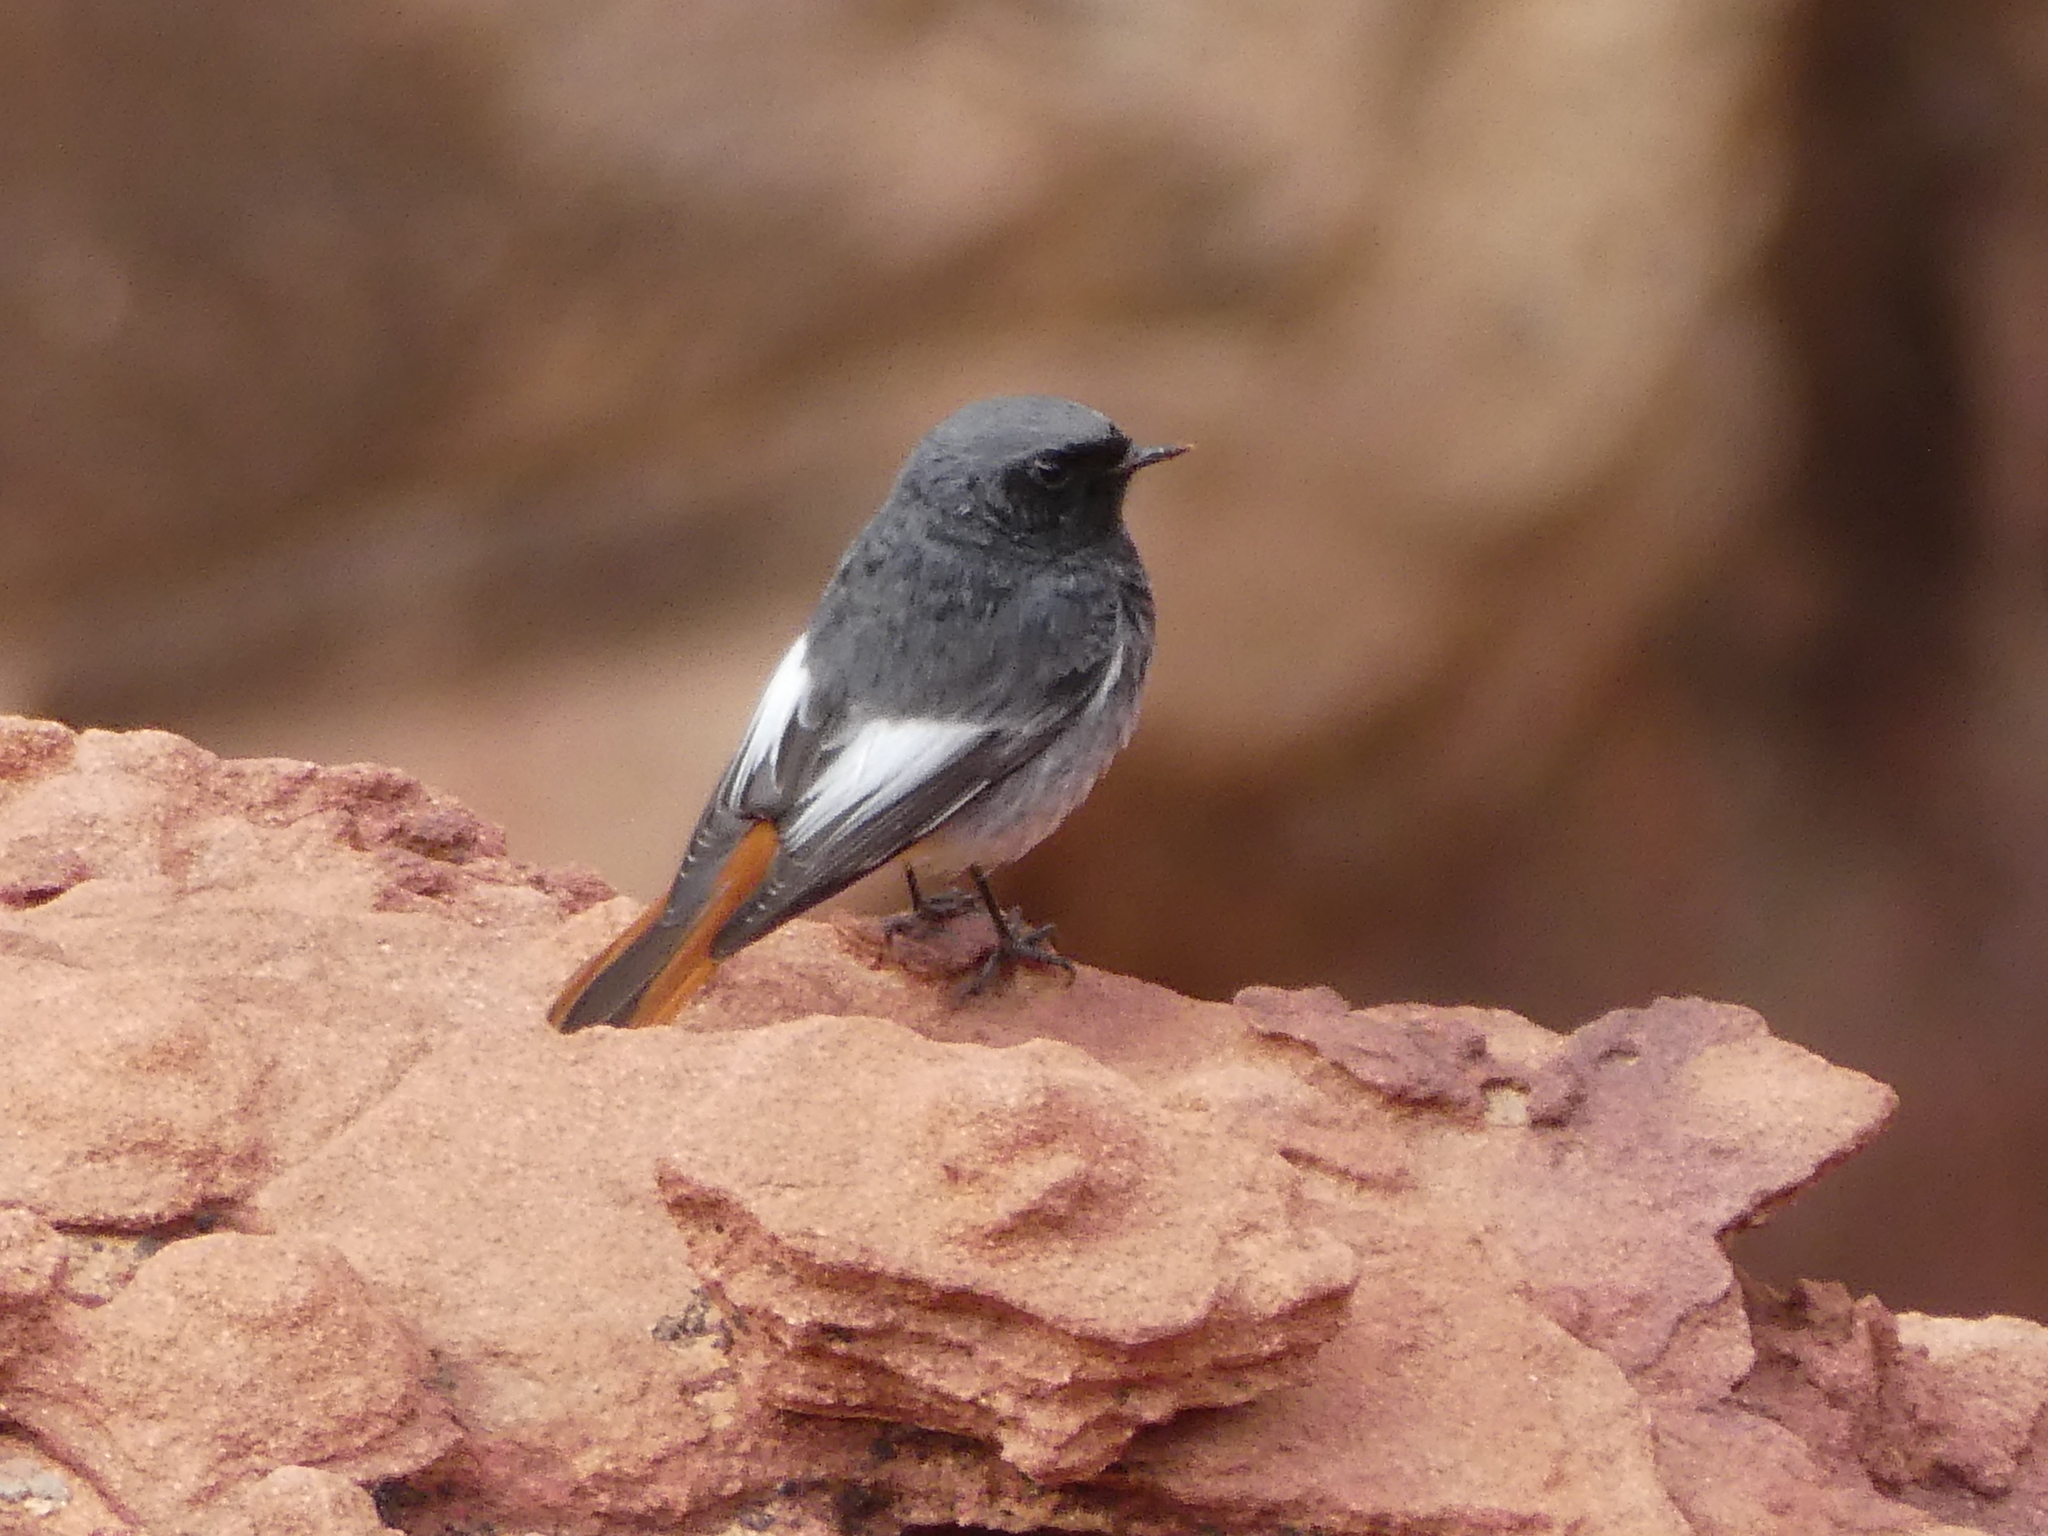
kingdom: Animalia
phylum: Chordata
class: Aves
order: Passeriformes
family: Muscicapidae
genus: Phoenicurus
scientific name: Phoenicurus ochruros
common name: Black redstart
